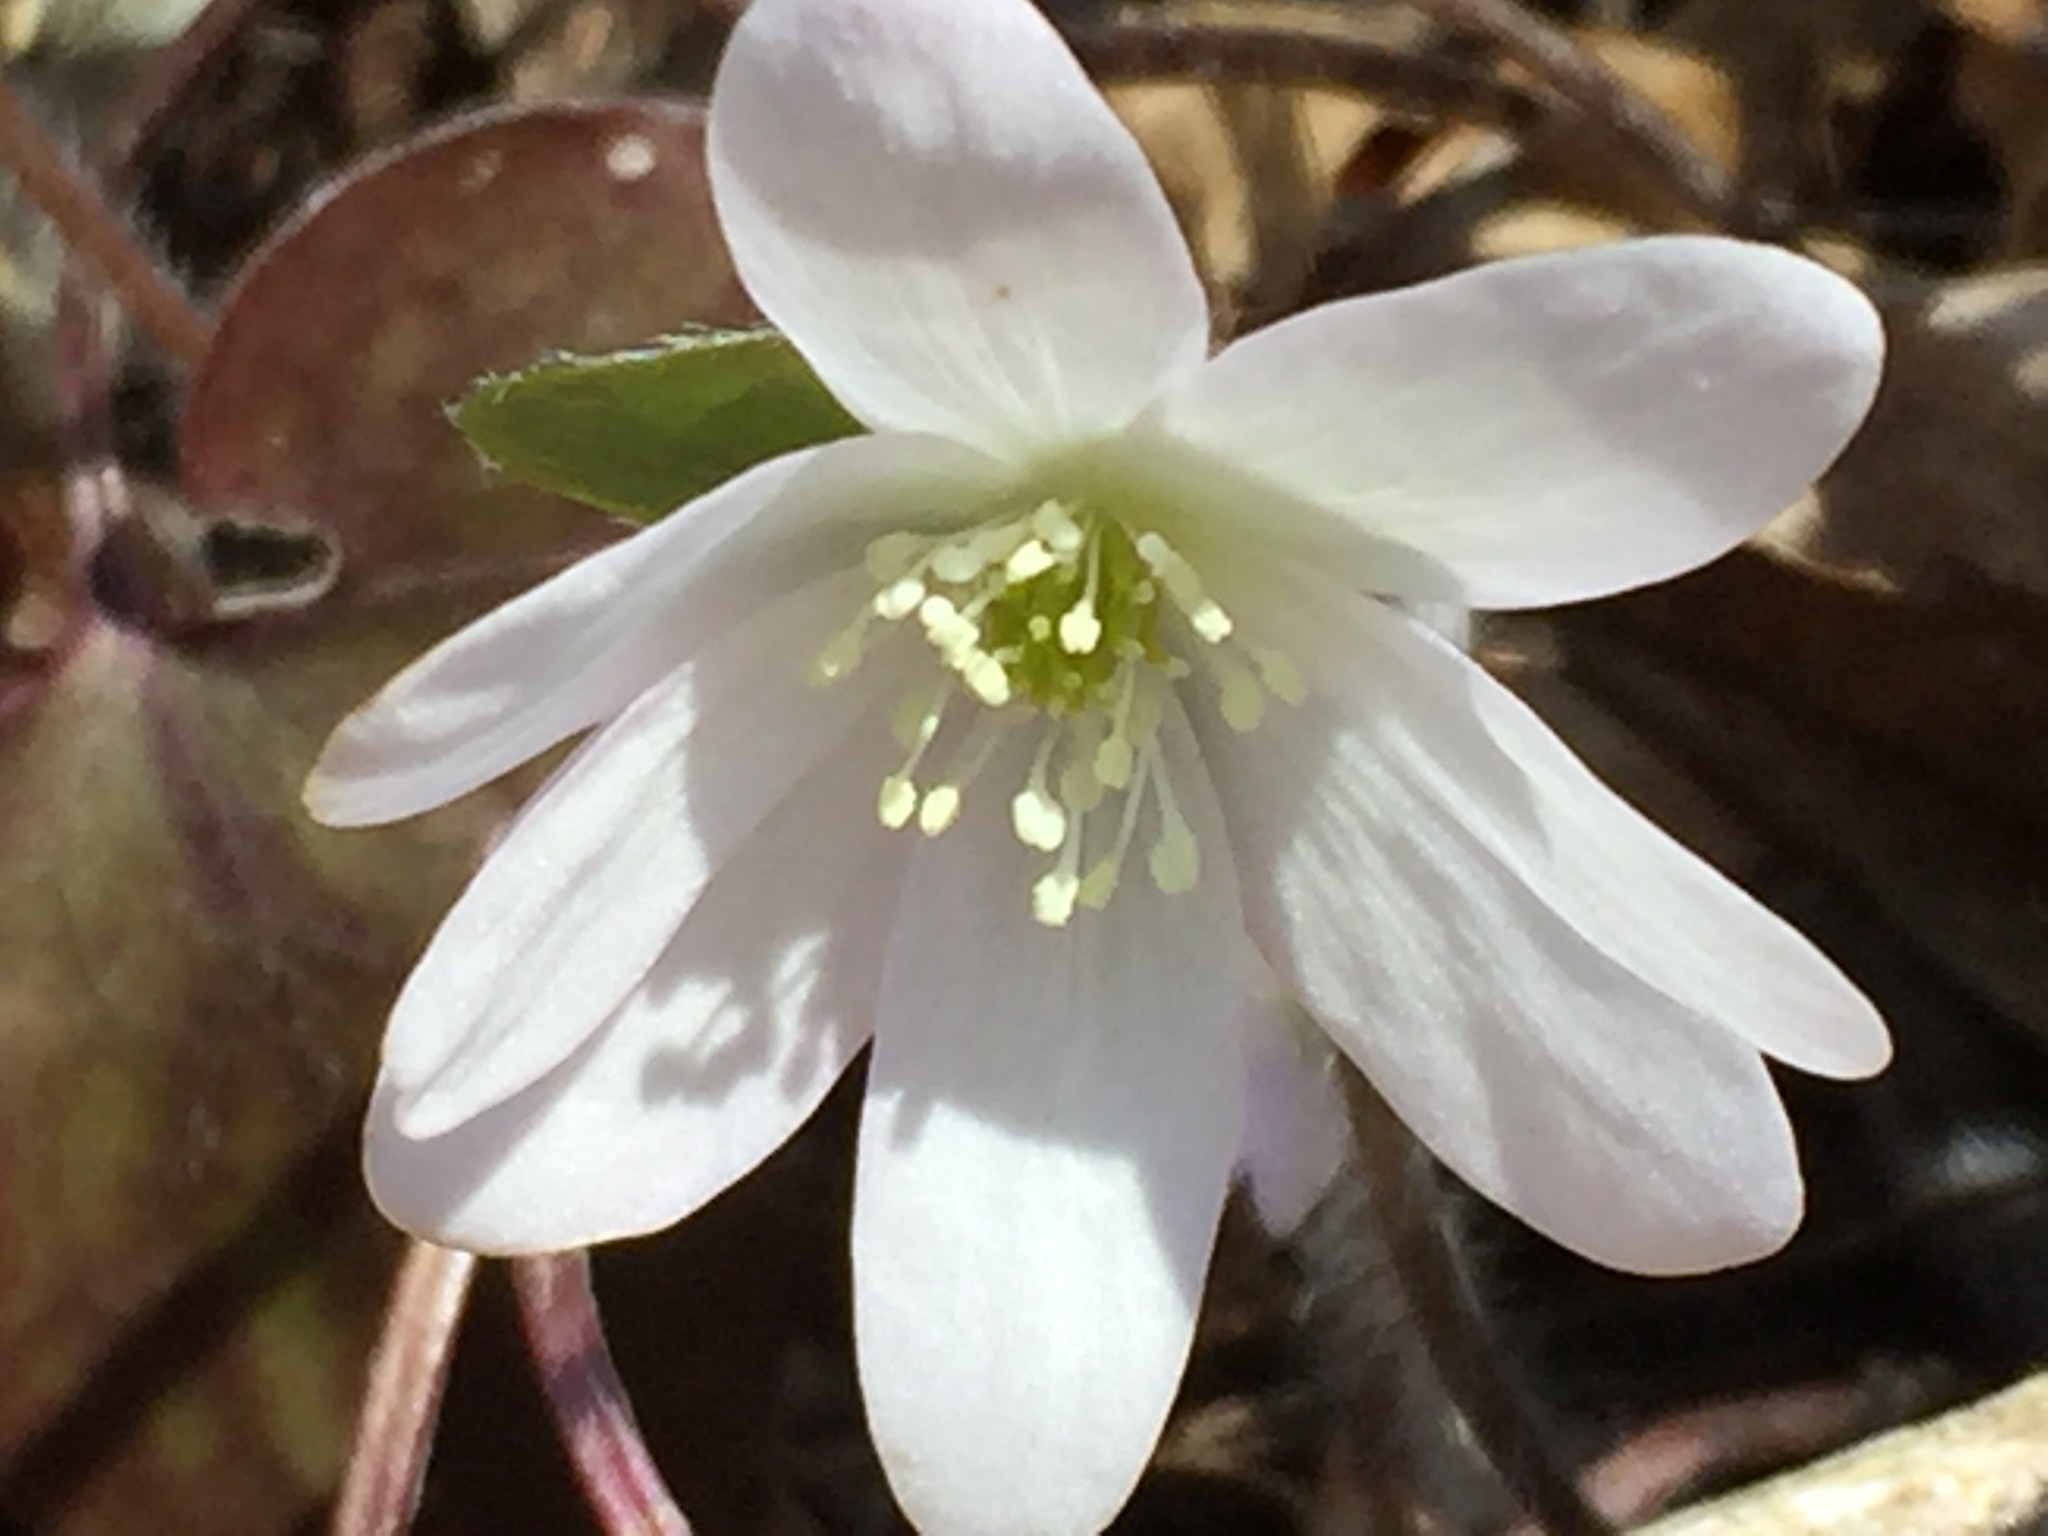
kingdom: Plantae
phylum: Tracheophyta
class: Magnoliopsida
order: Ranunculales
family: Ranunculaceae
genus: Hepatica
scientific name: Hepatica acutiloba
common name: Sharp-lobed hepatica
